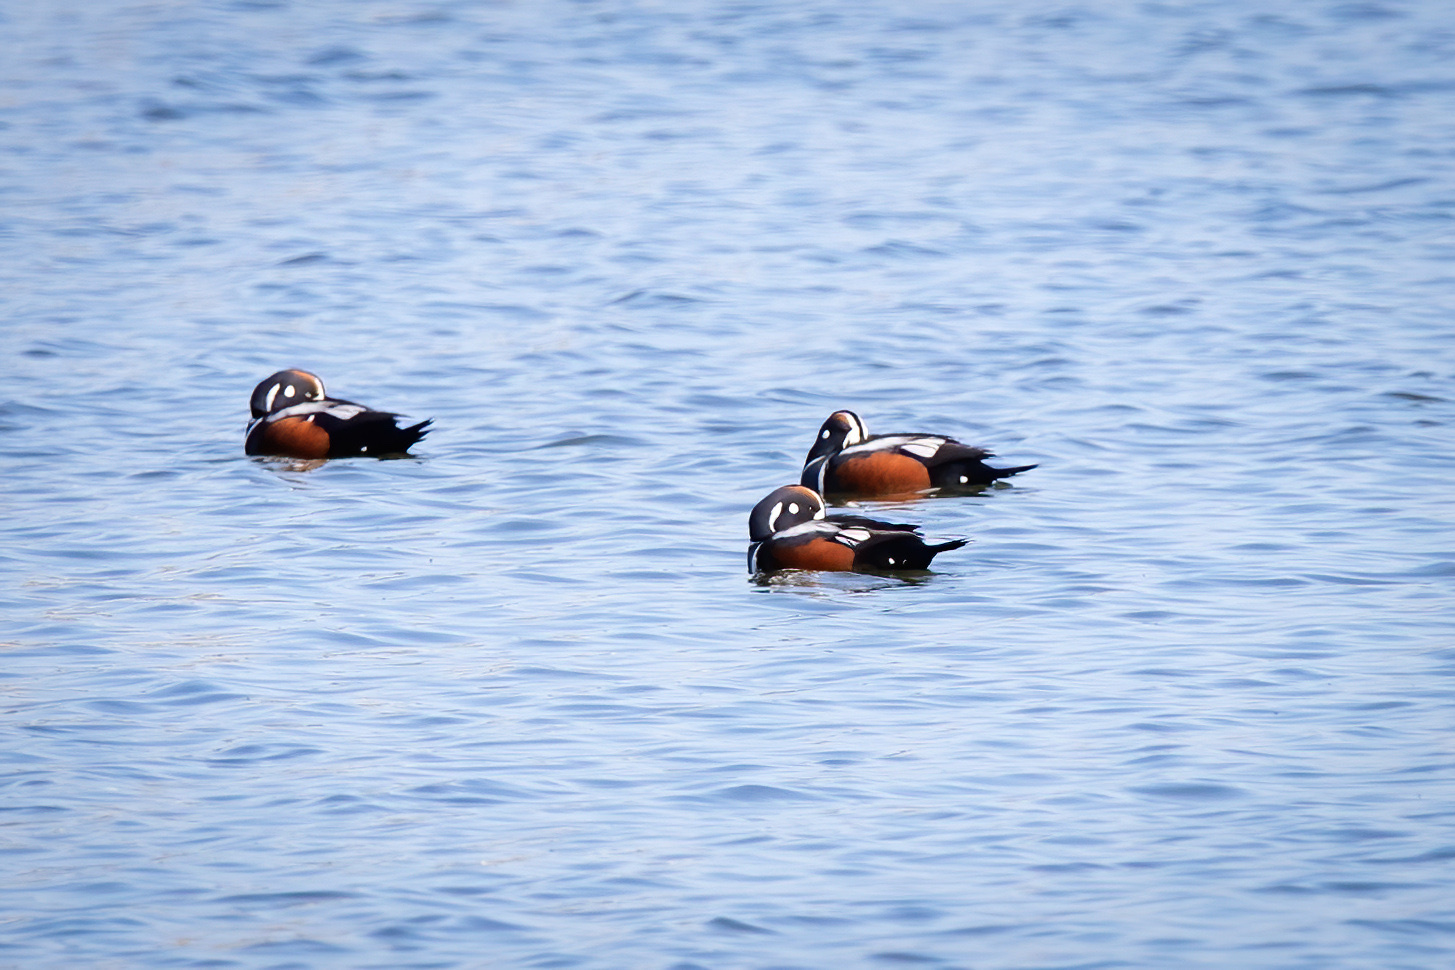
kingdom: Animalia
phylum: Chordata
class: Aves
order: Anseriformes
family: Anatidae
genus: Histrionicus
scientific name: Histrionicus histrionicus
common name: Harlequin duck
